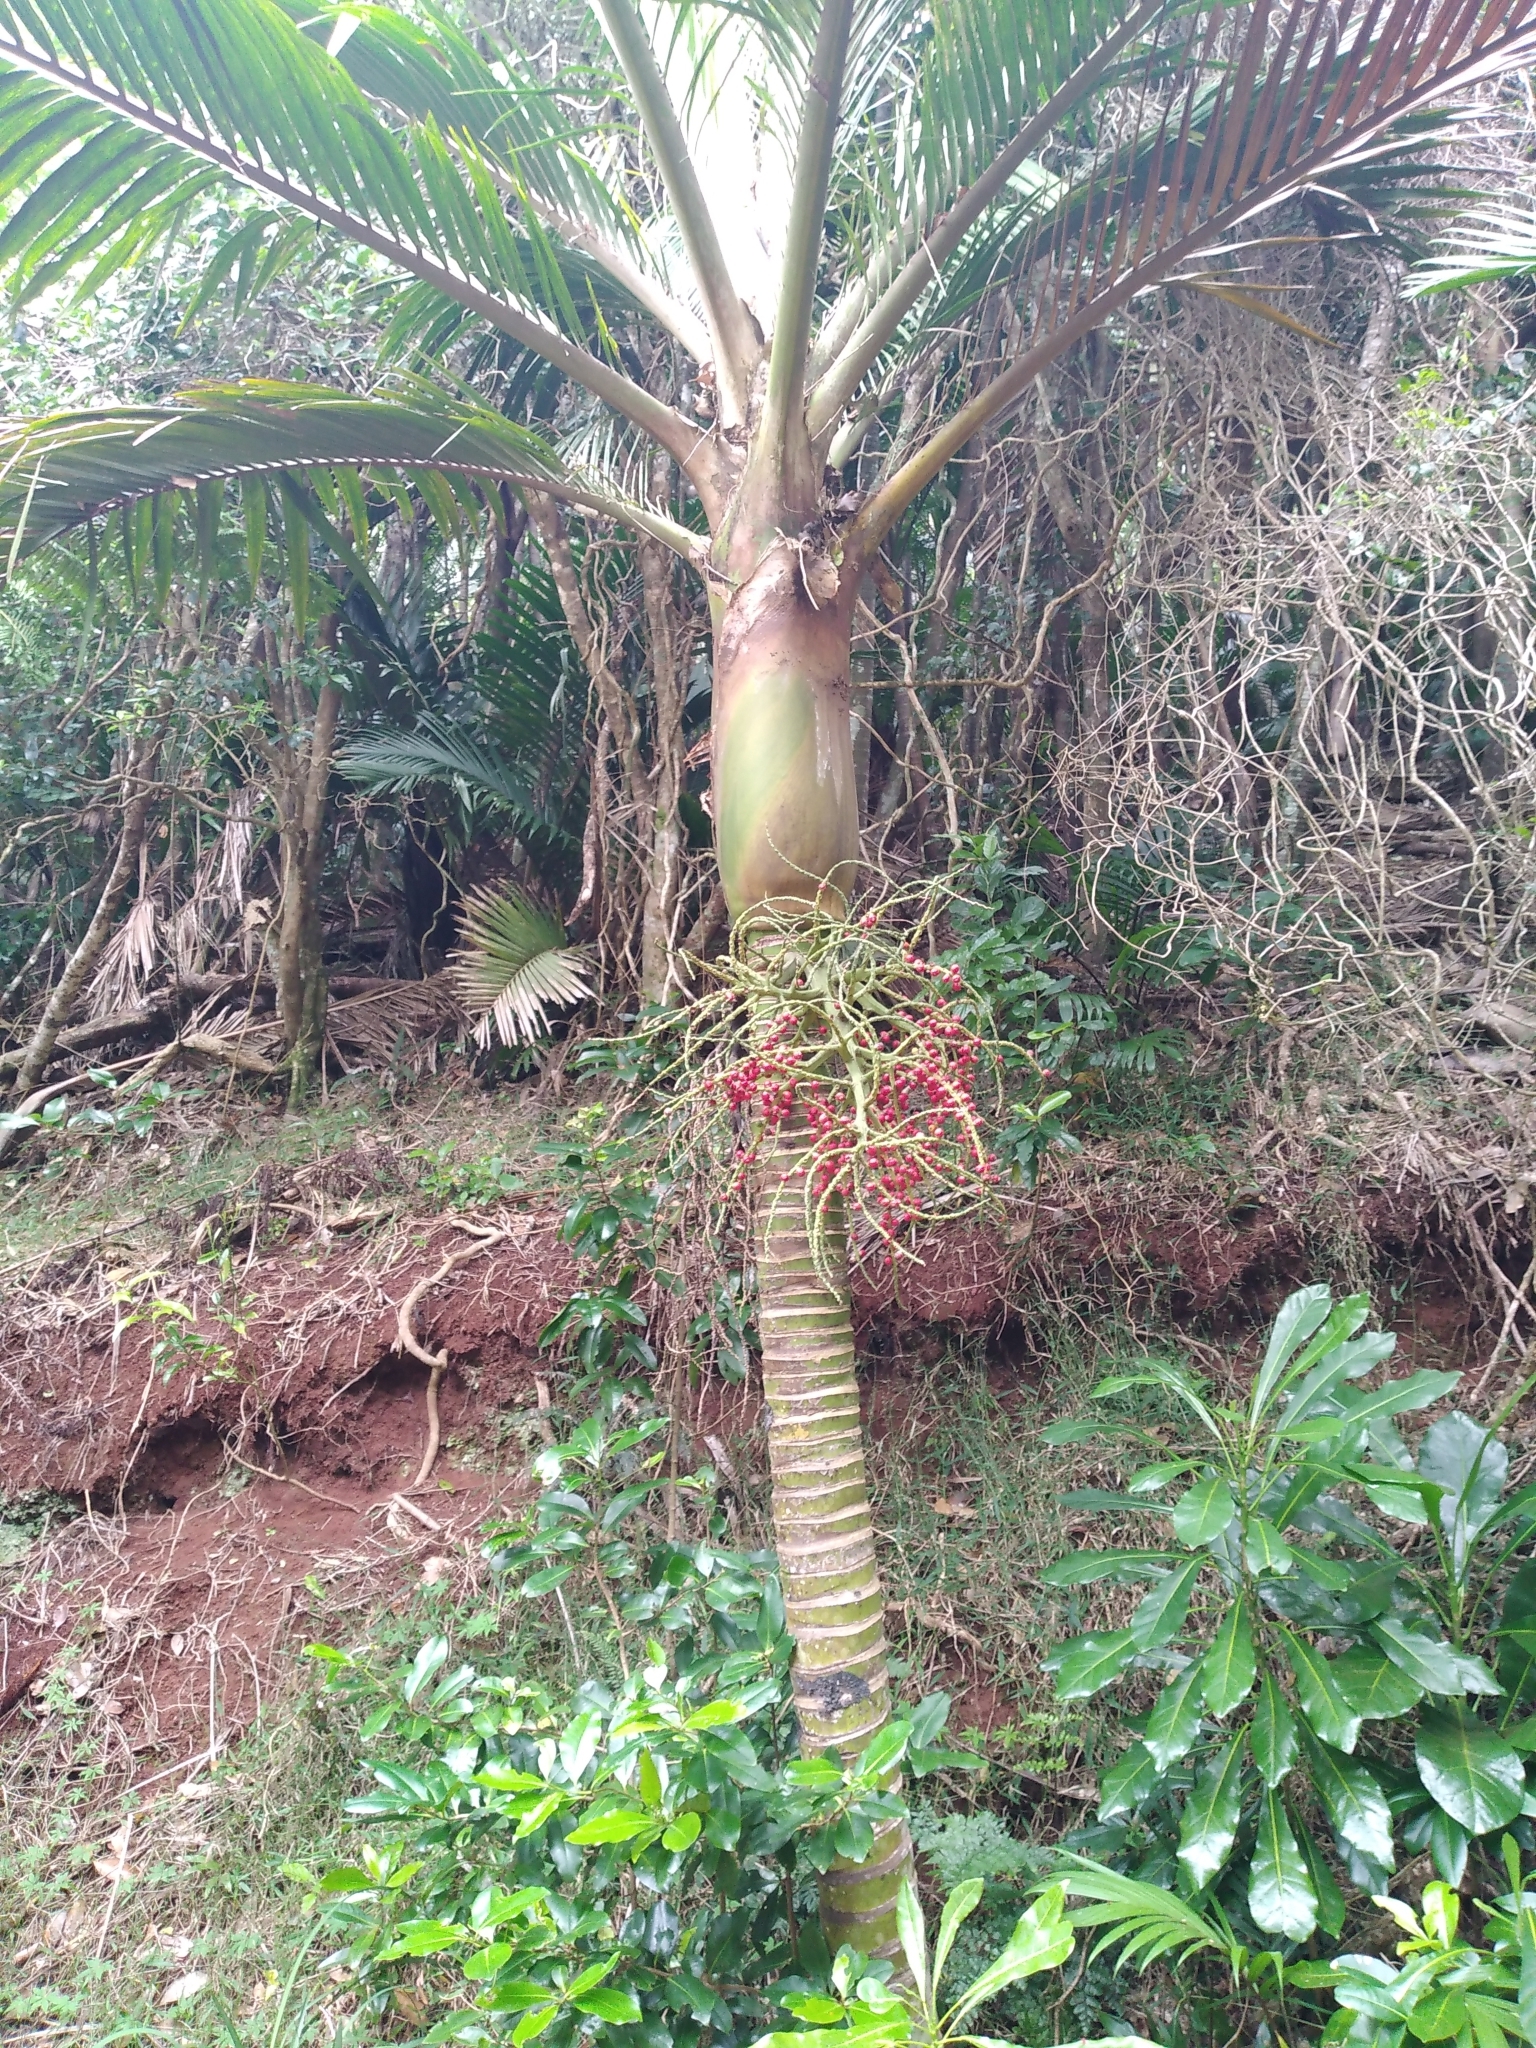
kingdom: Plantae
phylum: Tracheophyta
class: Liliopsida
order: Arecales
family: Arecaceae
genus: Rhopalostylis
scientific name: Rhopalostylis baueri
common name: Norfolk island palm
